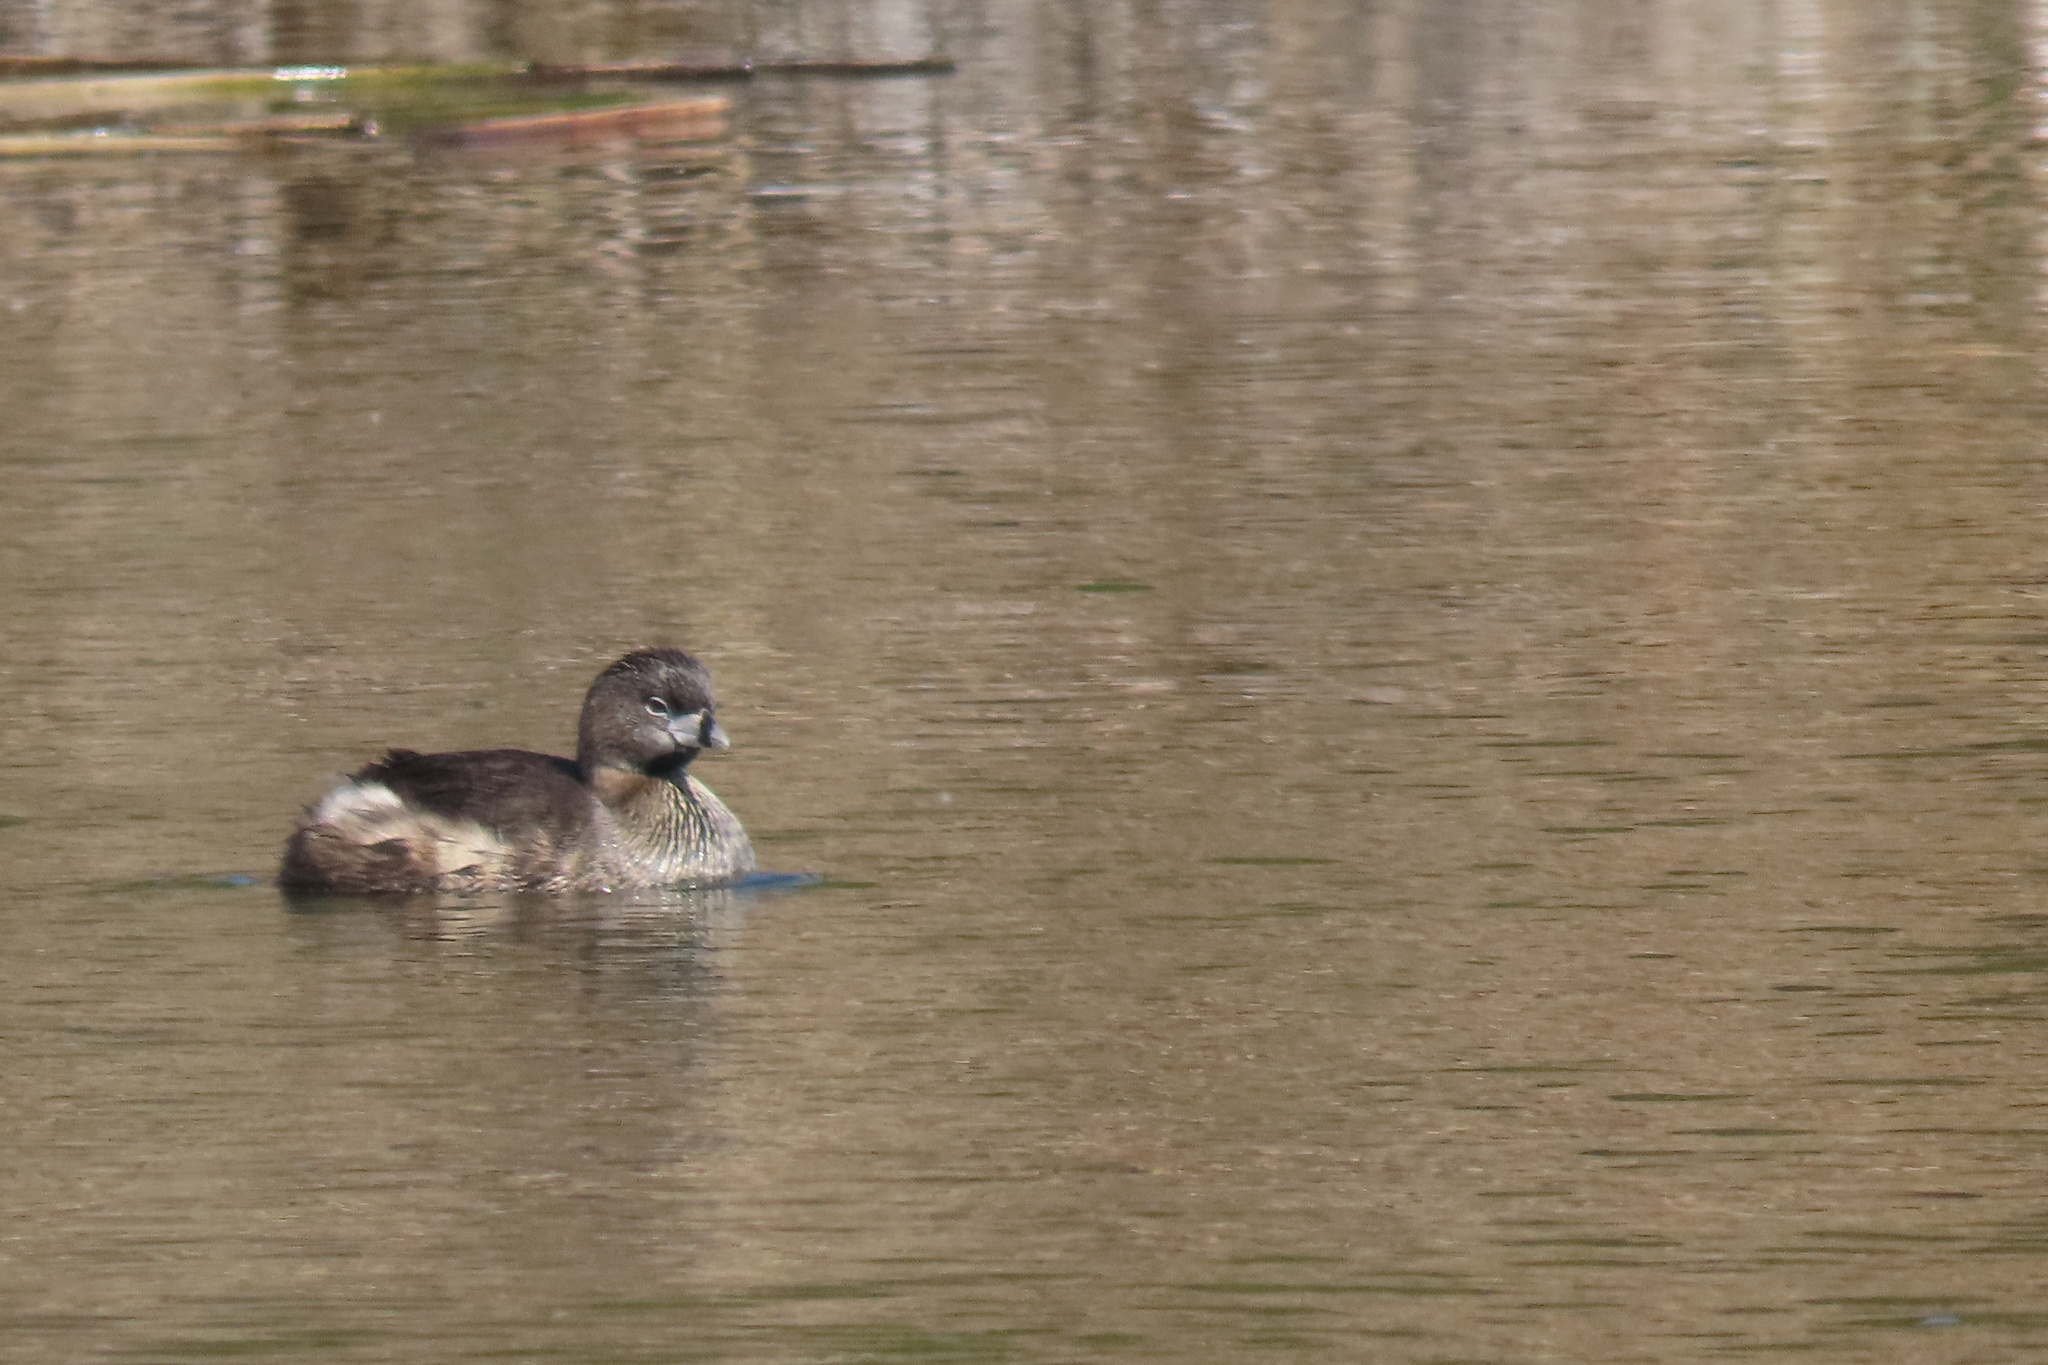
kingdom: Animalia
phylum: Chordata
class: Aves
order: Podicipediformes
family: Podicipedidae
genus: Podilymbus
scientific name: Podilymbus podiceps
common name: Pied-billed grebe
